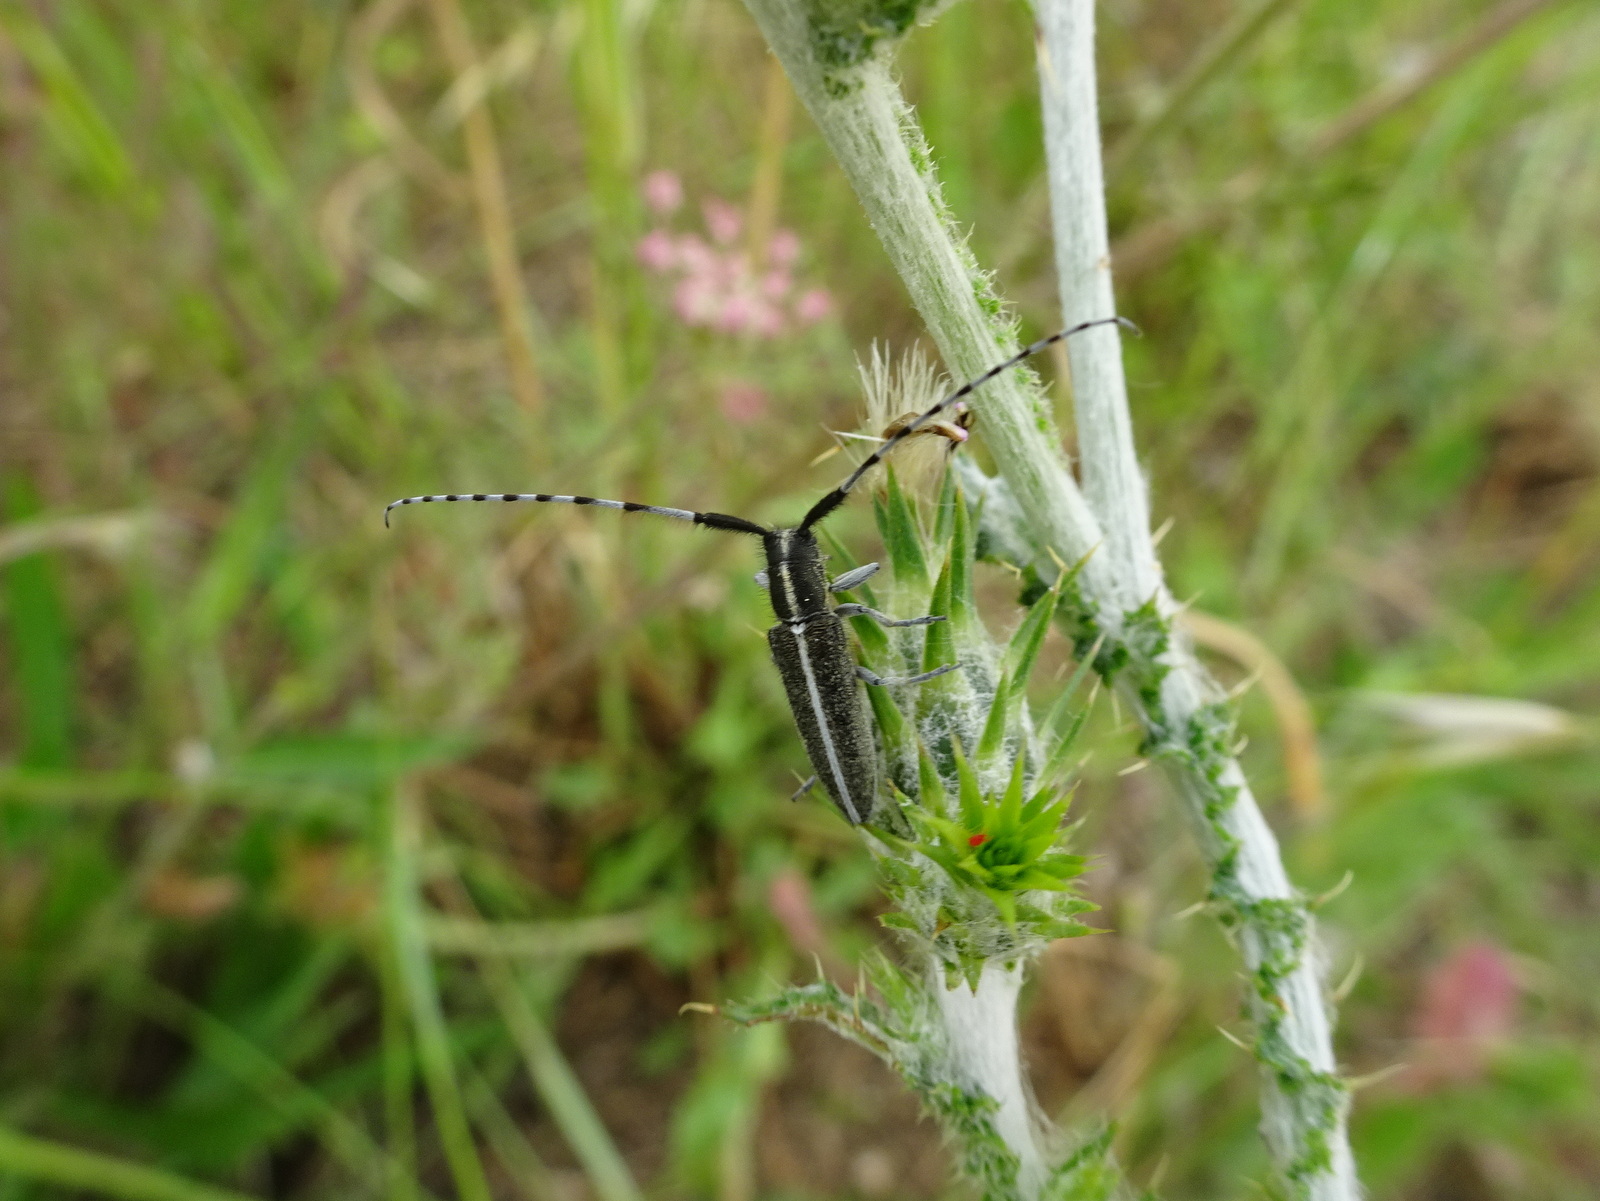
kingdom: Animalia
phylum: Arthropoda
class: Insecta
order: Coleoptera
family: Cerambycidae
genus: Agapanthia
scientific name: Agapanthia suturalis
